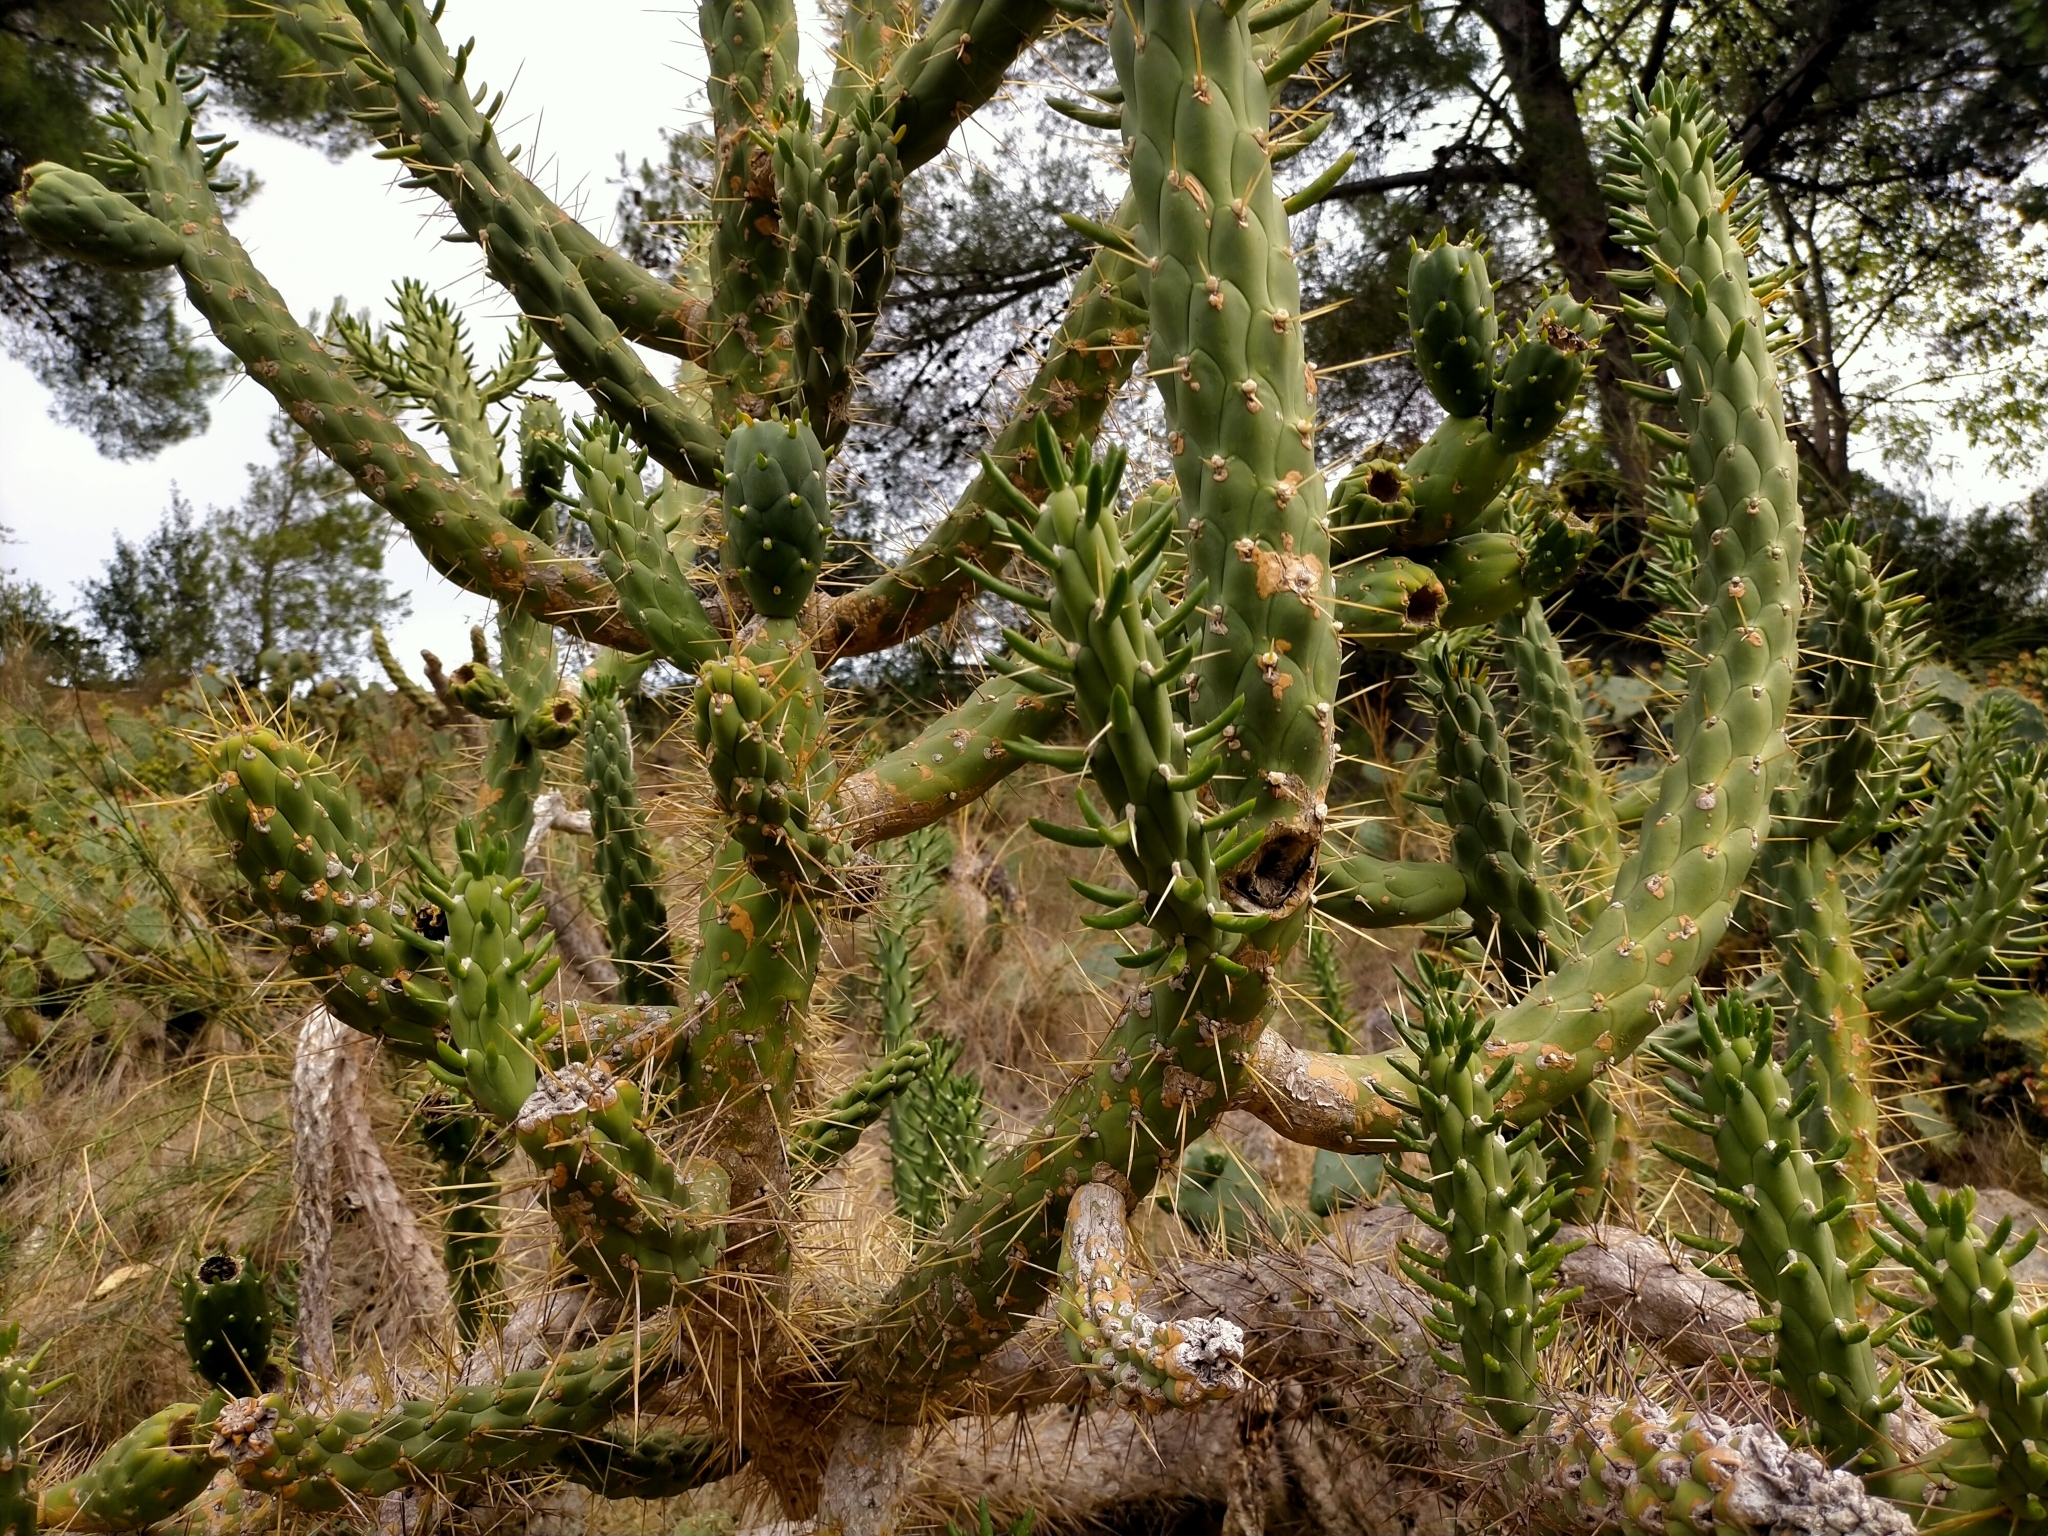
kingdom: Plantae
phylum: Tracheophyta
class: Magnoliopsida
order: Caryophyllales
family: Cactaceae
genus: Austrocylindropuntia
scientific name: Austrocylindropuntia subulata
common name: Eve's needle cactus
